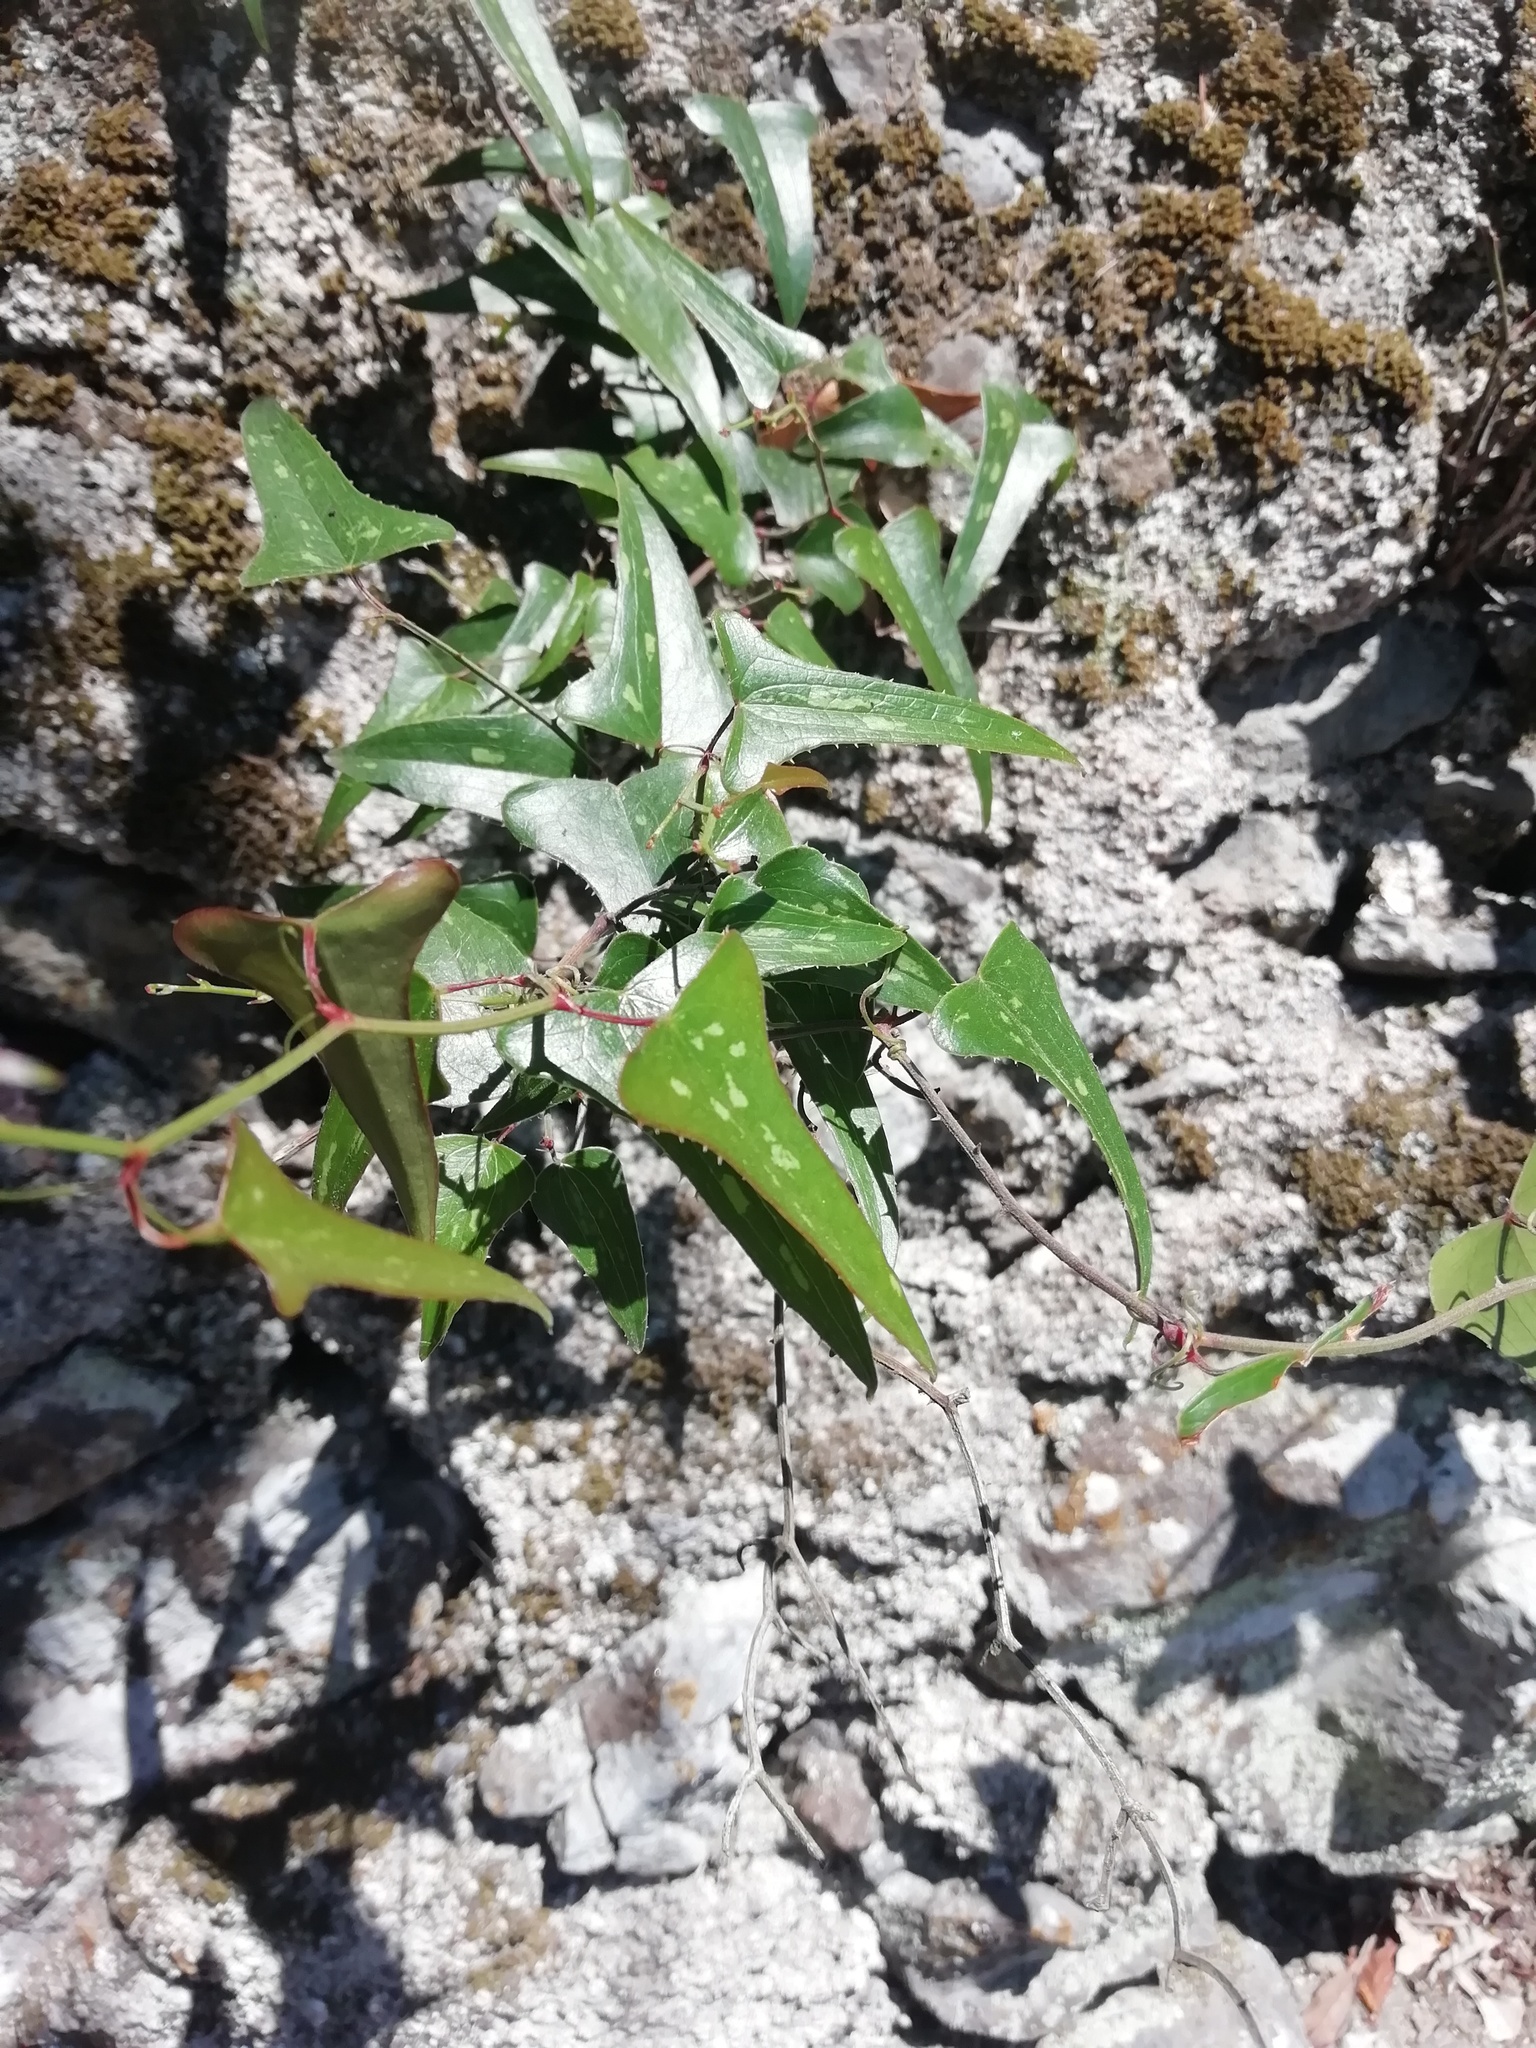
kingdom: Plantae
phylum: Tracheophyta
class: Liliopsida
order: Liliales
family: Smilacaceae
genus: Smilax
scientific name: Smilax aspera
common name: Common smilax
